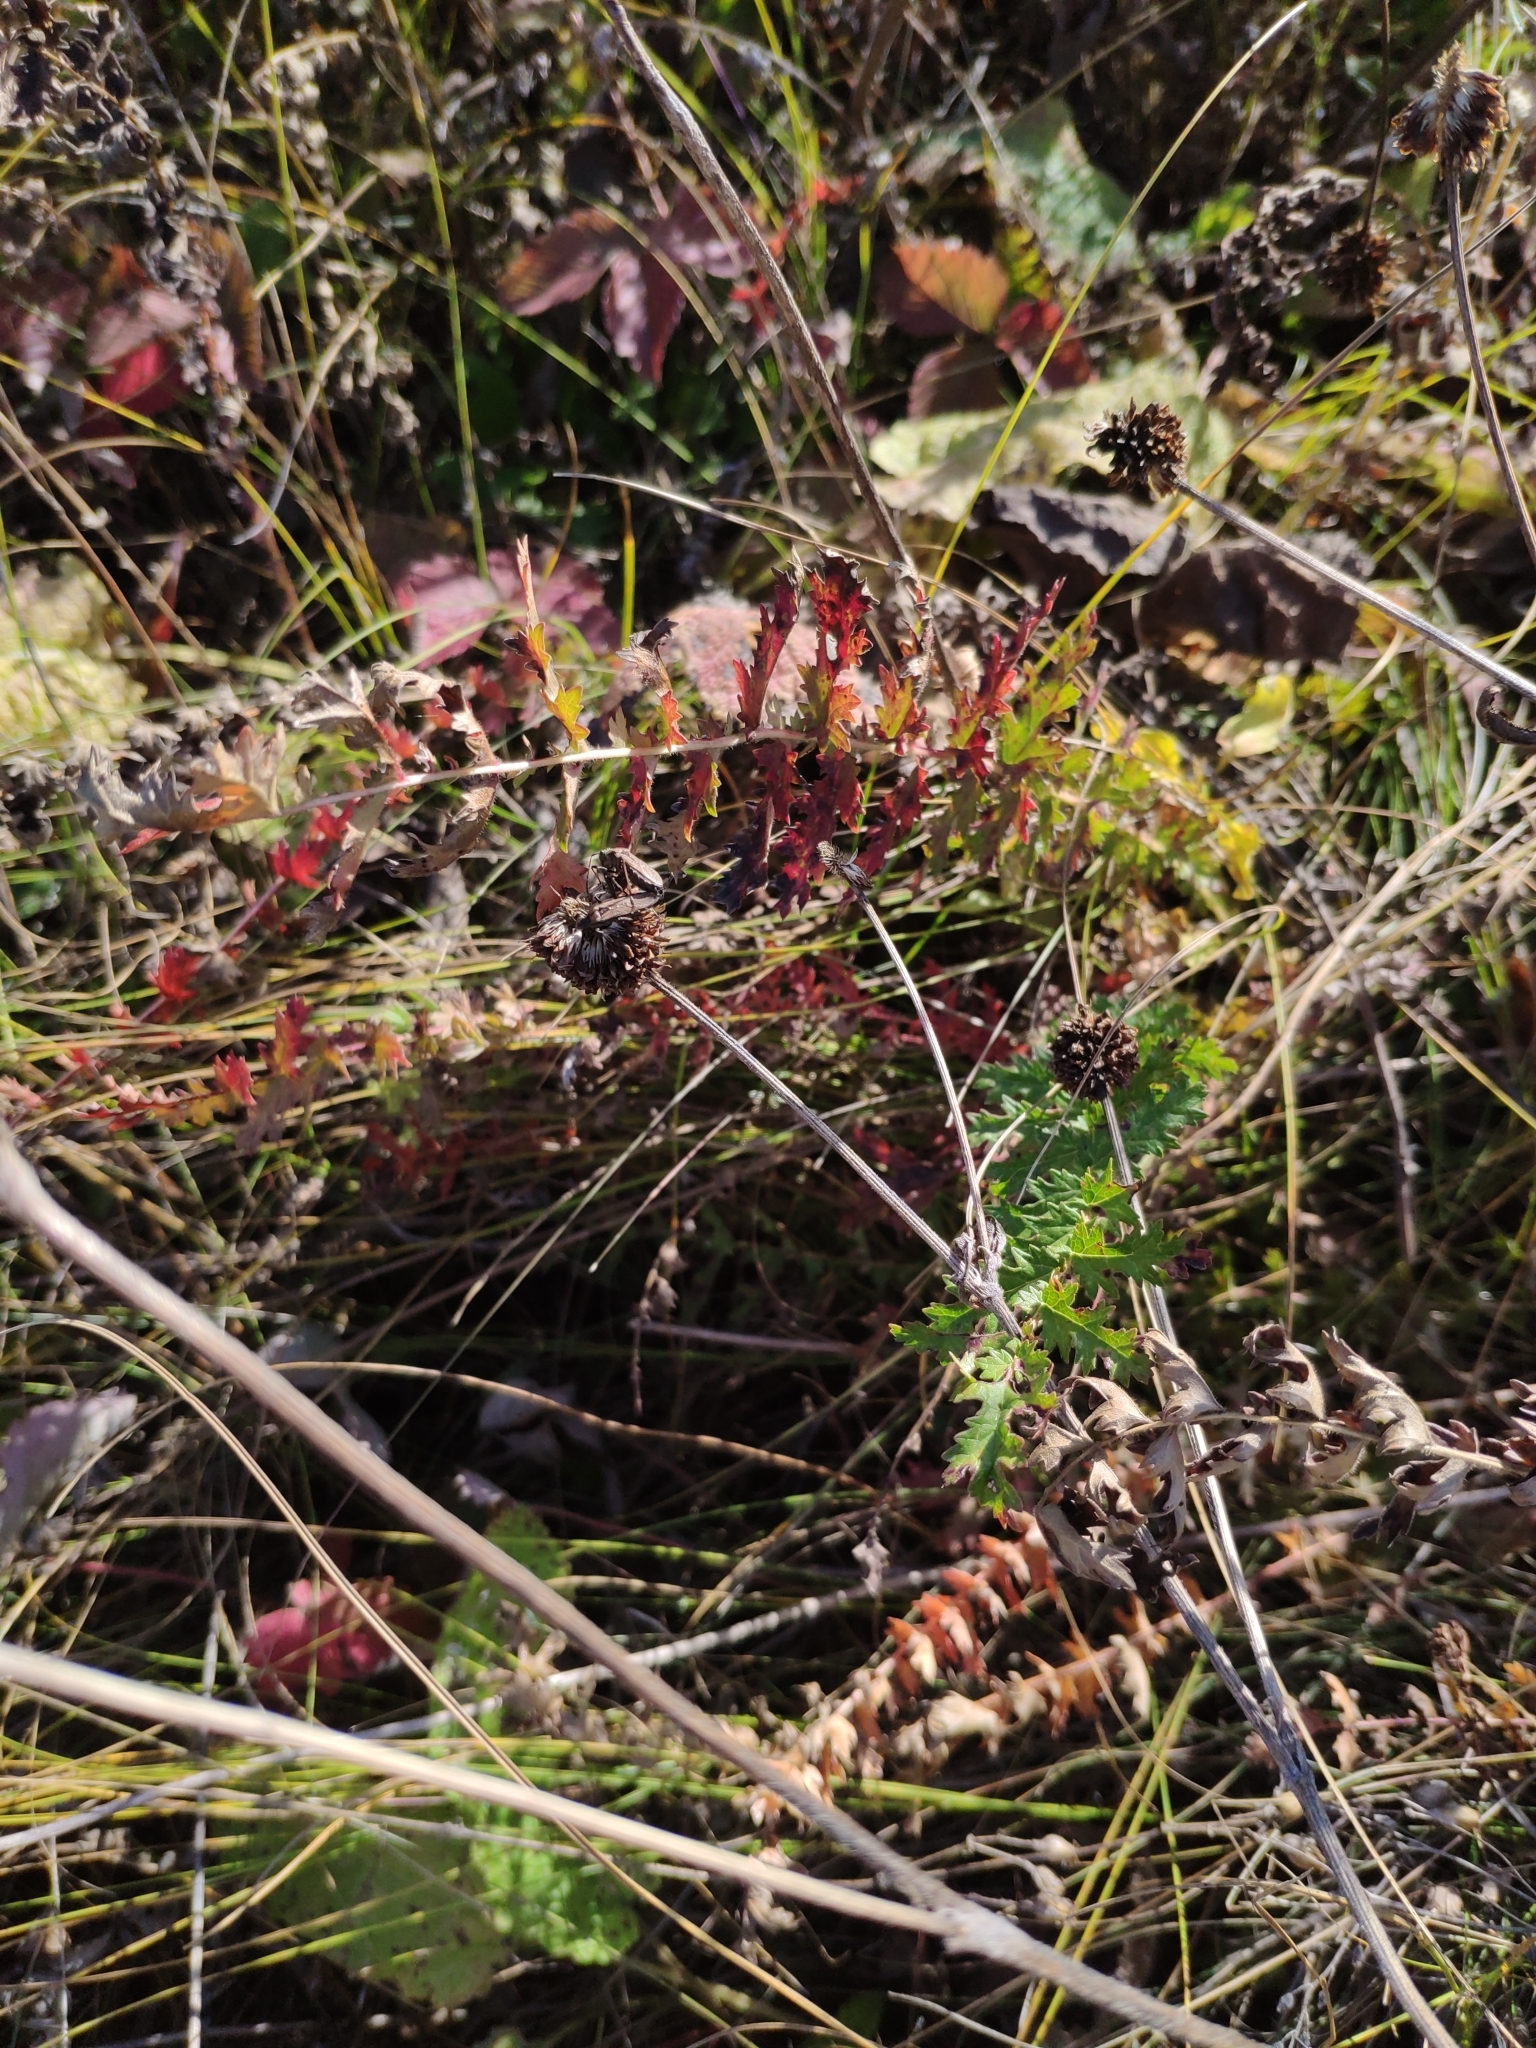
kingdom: Plantae
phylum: Tracheophyta
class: Magnoliopsida
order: Rosales
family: Rosaceae
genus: Filipendula
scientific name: Filipendula vulgaris
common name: Dropwort
